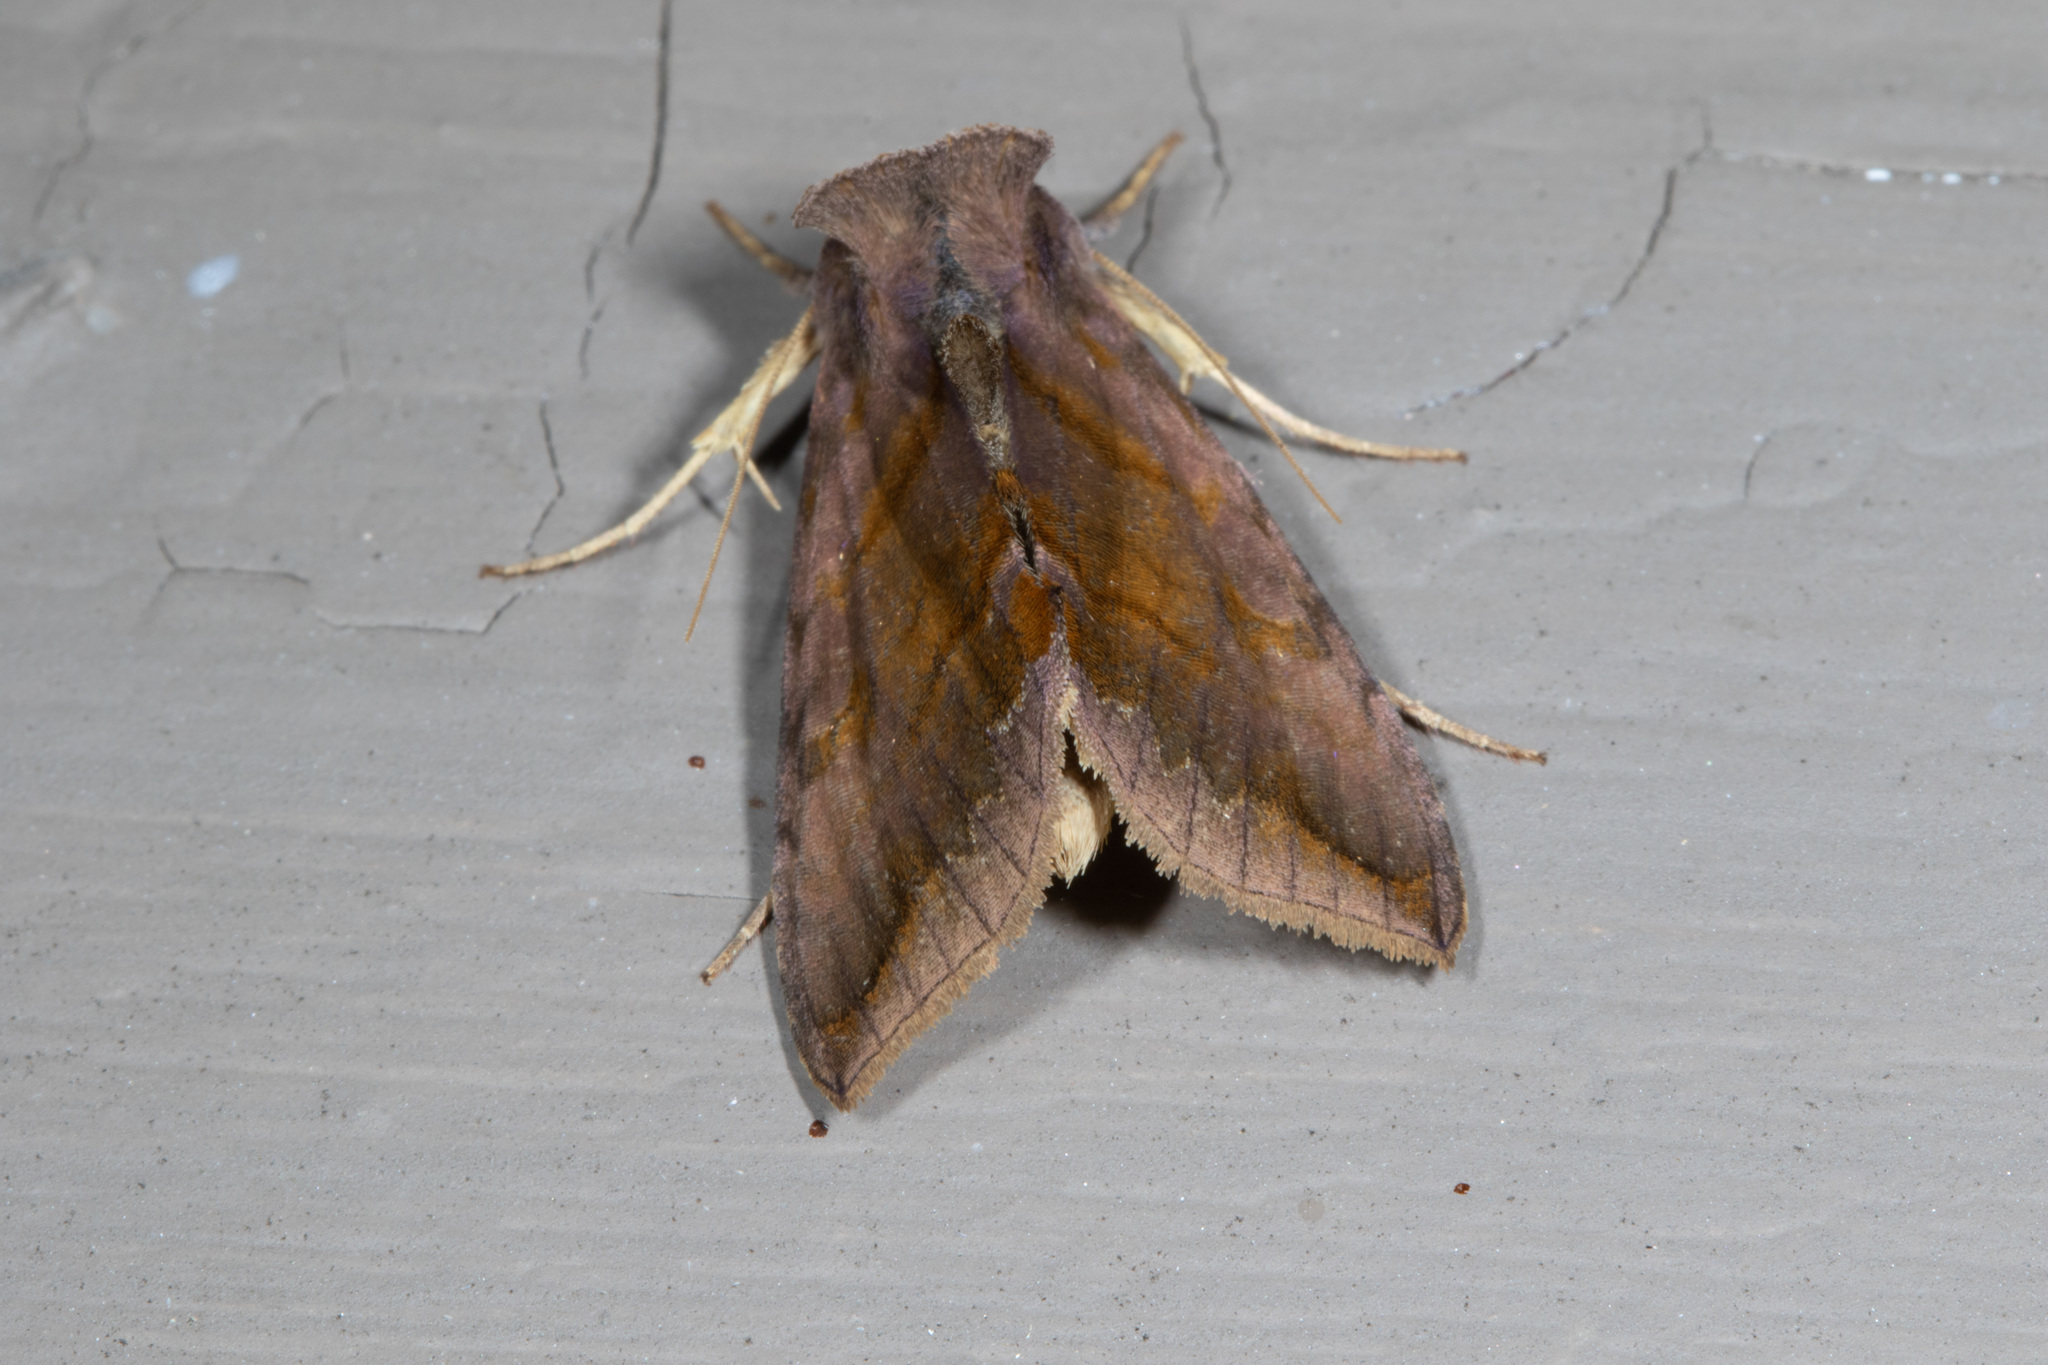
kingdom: Animalia
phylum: Arthropoda
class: Insecta
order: Lepidoptera
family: Noctuidae
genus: Allagrapha
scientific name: Allagrapha aerea
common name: Unspotted looper moth
